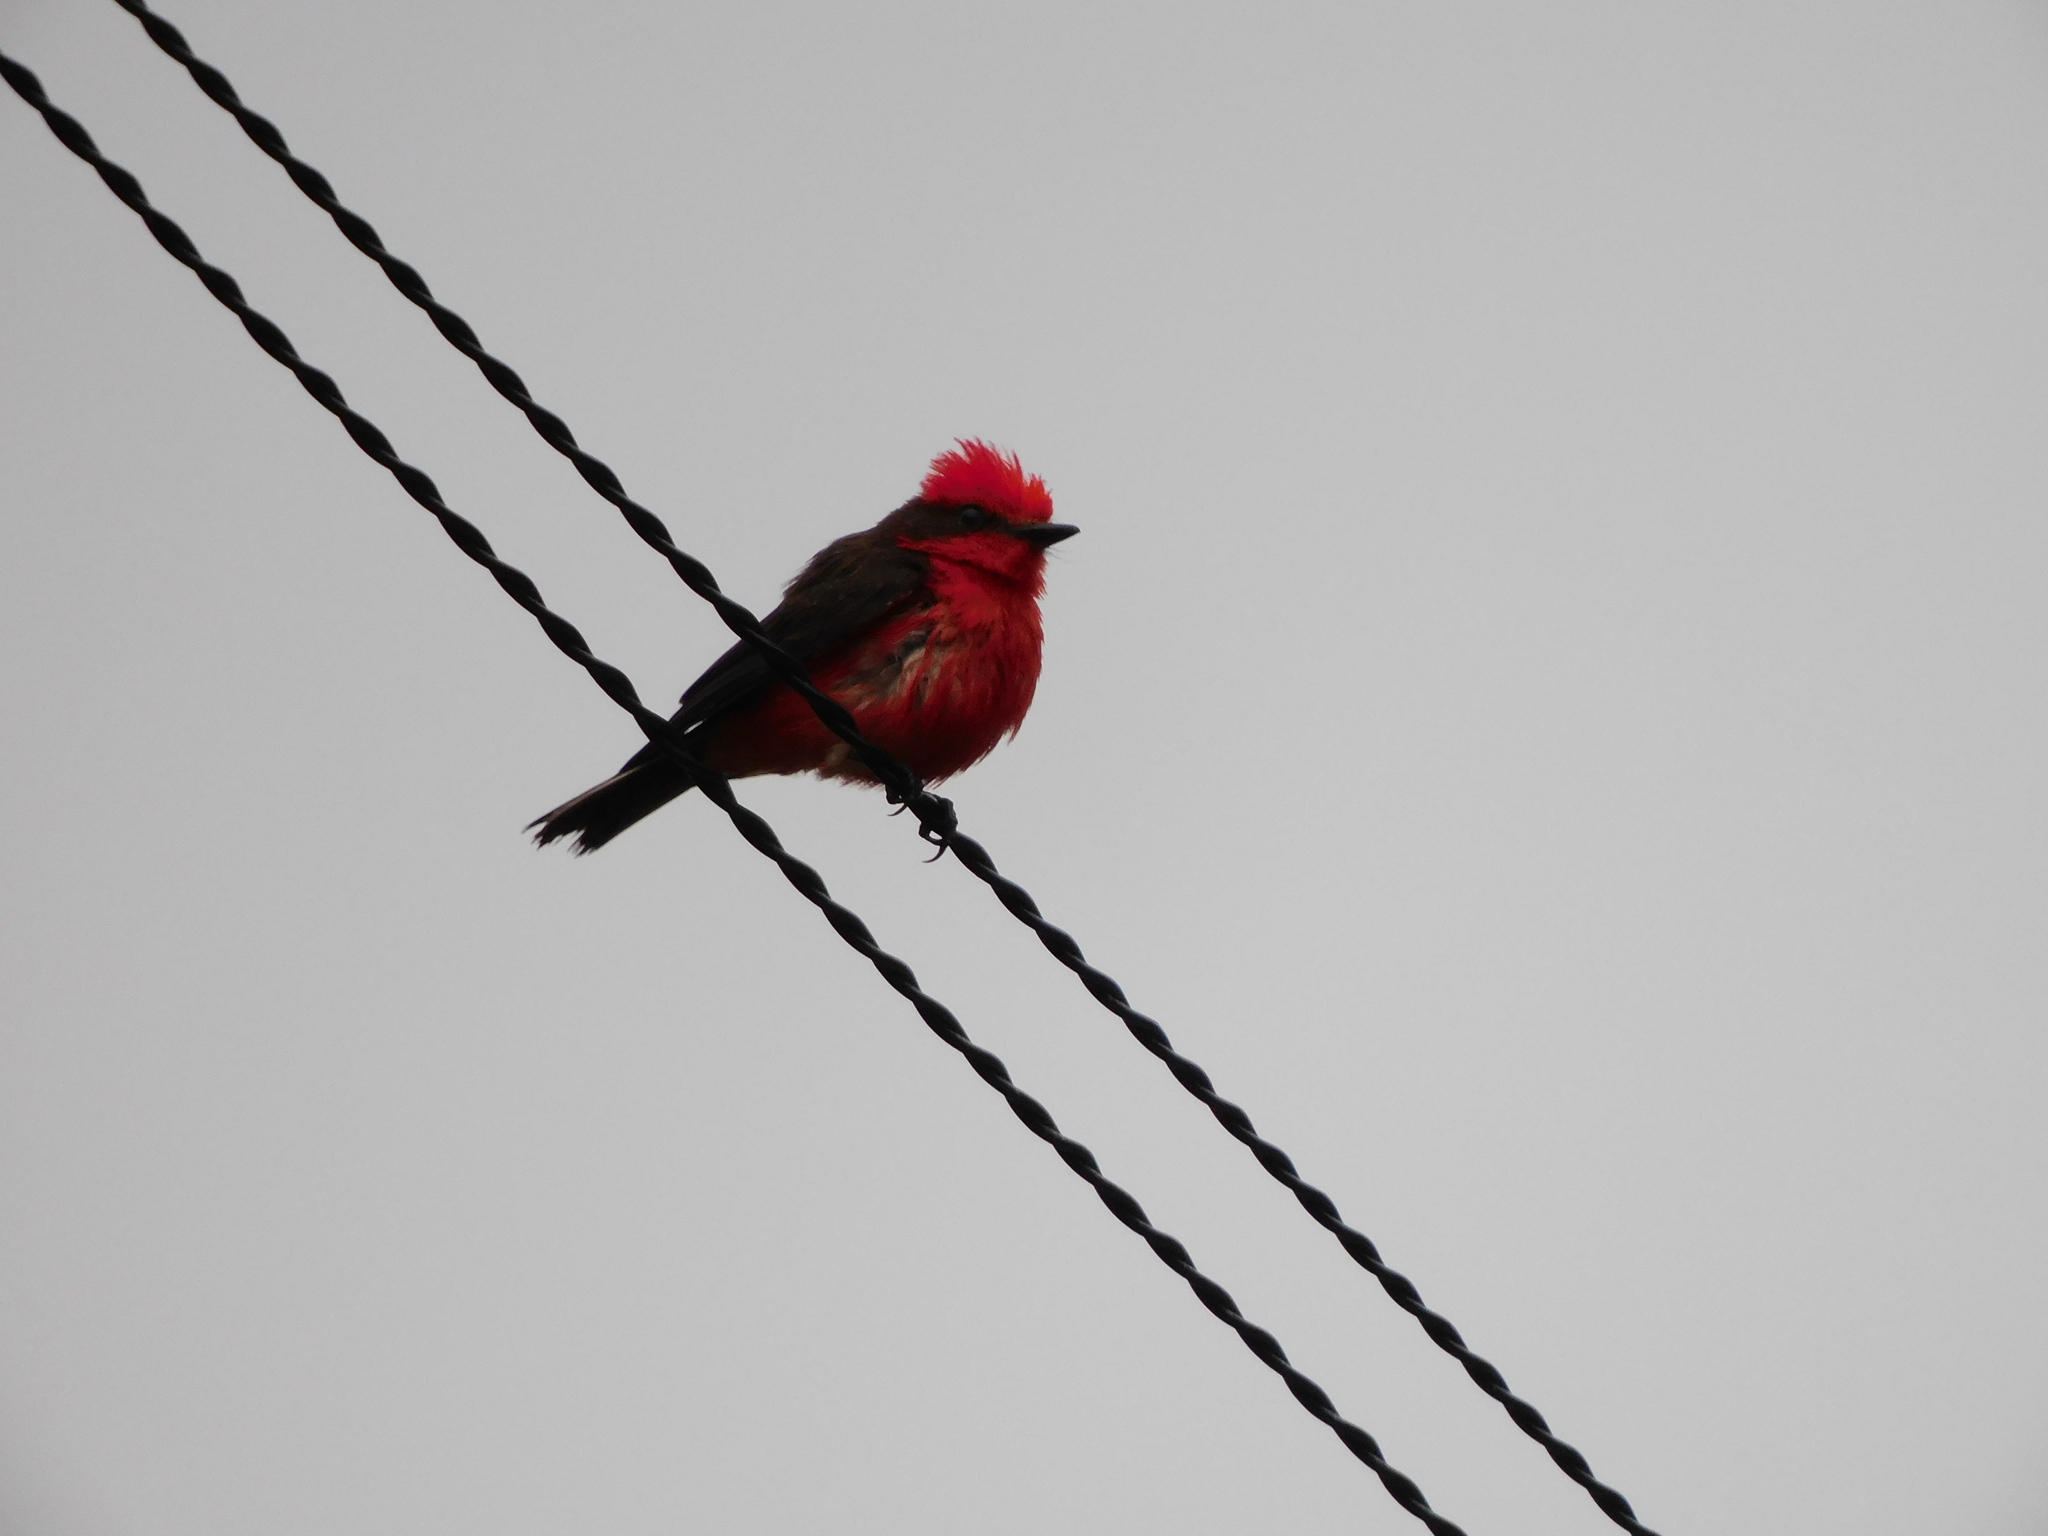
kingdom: Animalia
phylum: Chordata
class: Aves
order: Passeriformes
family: Tyrannidae
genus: Pyrocephalus
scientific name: Pyrocephalus rubinus
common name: Vermilion flycatcher
